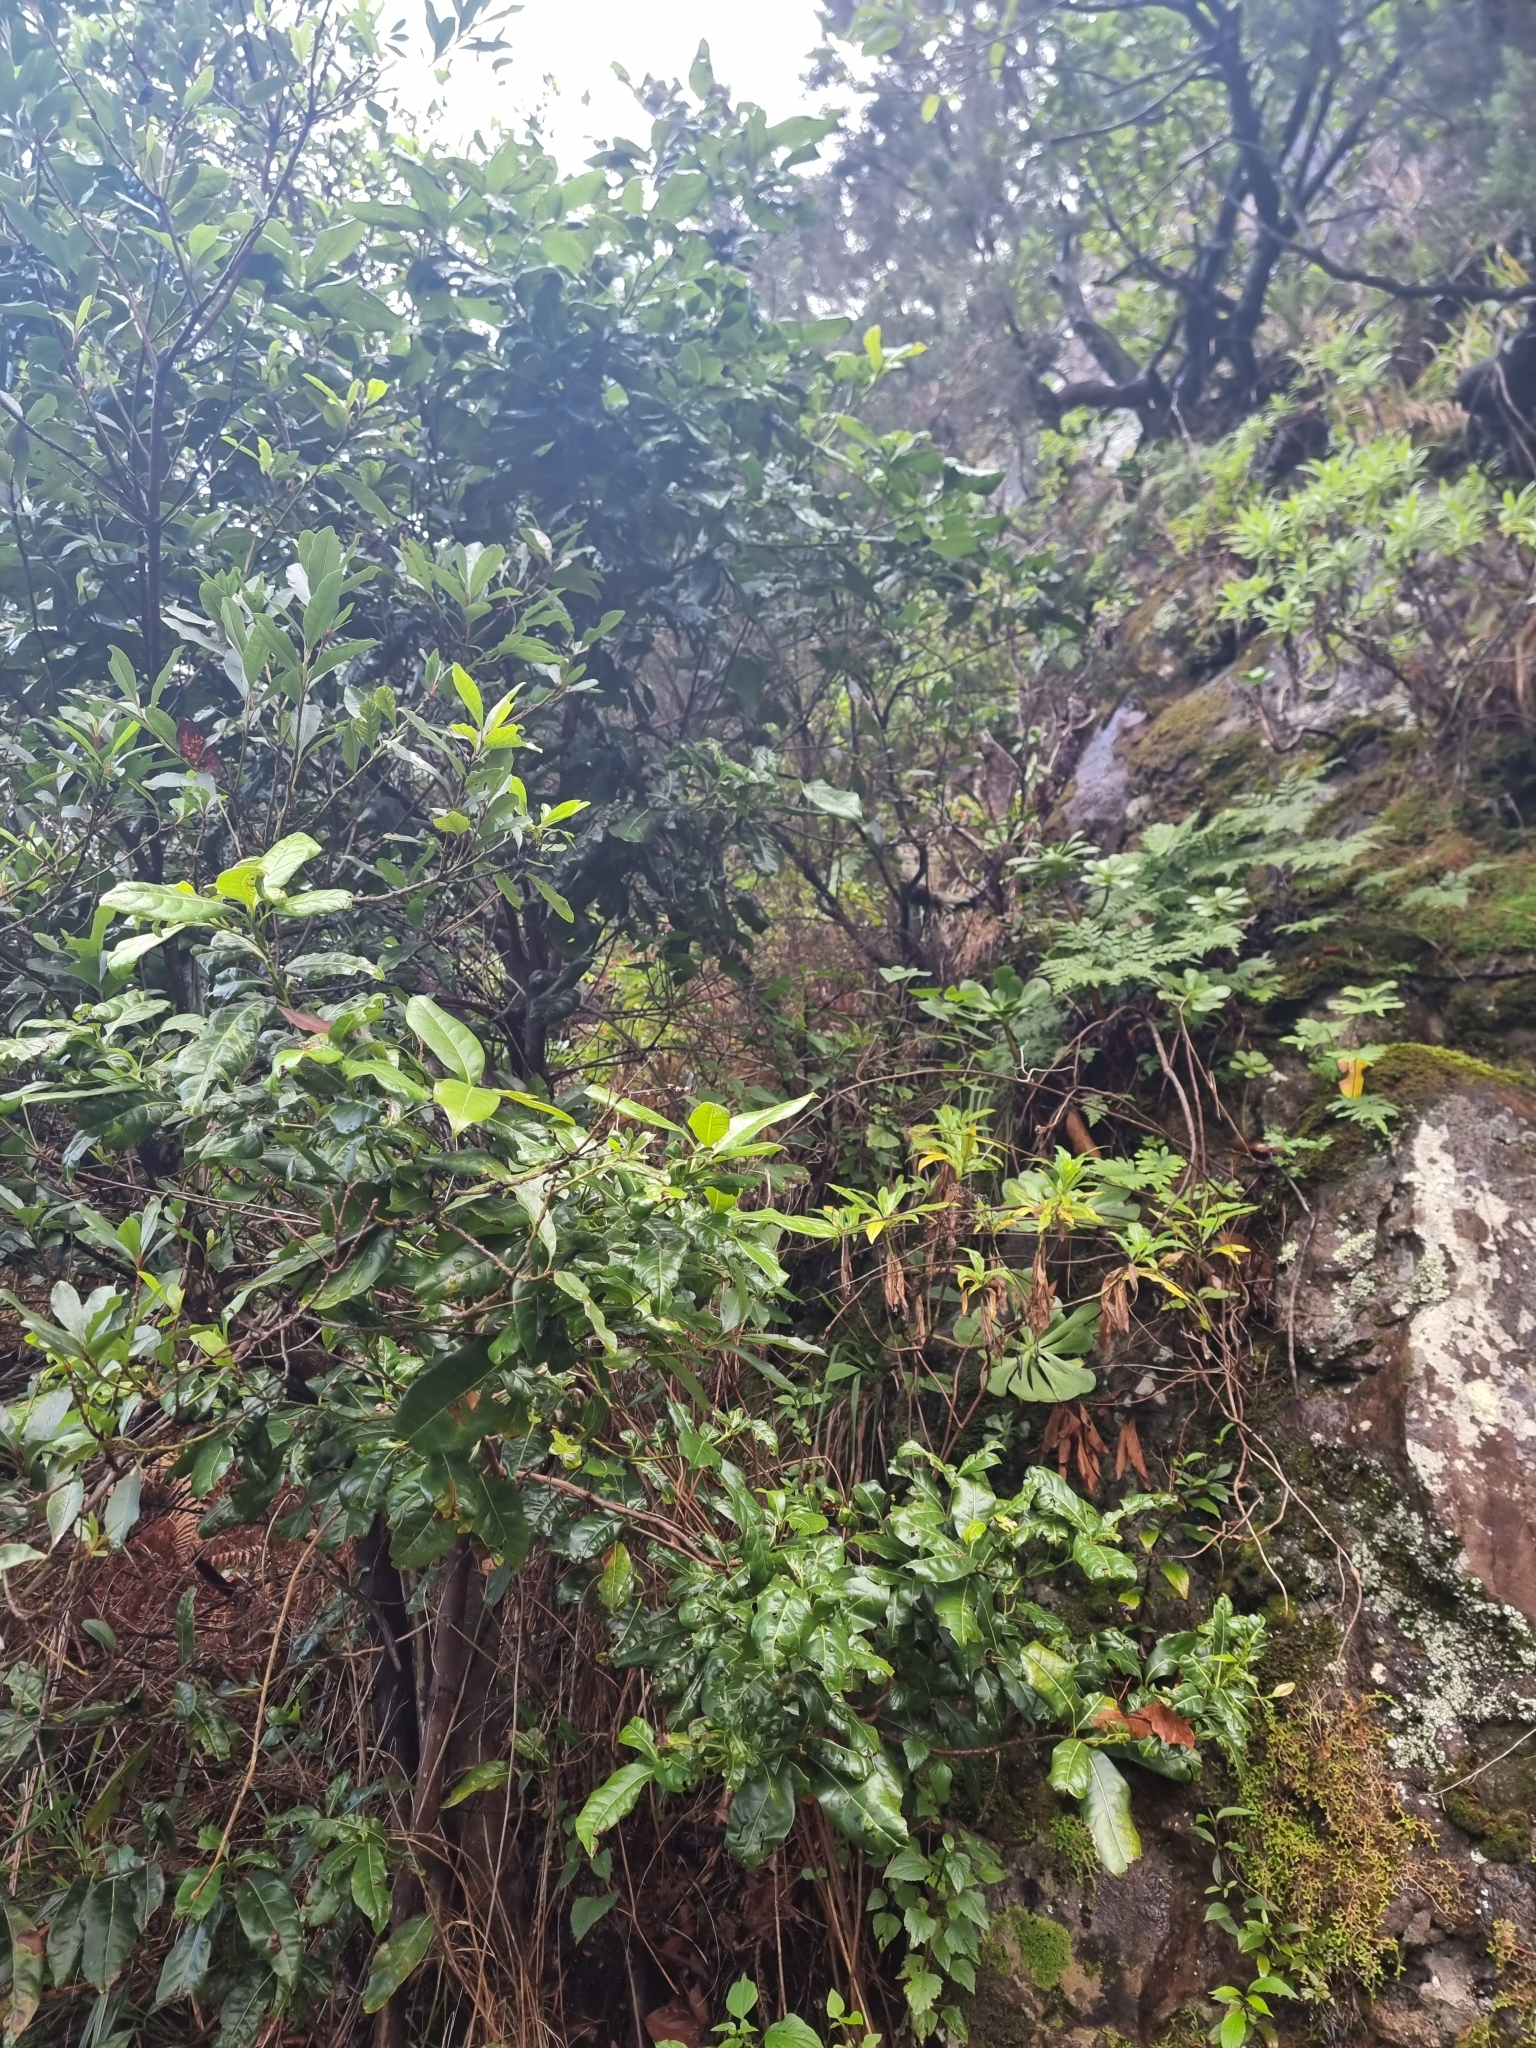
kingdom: Plantae
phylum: Tracheophyta
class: Magnoliopsida
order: Laurales
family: Lauraceae
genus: Apollonias
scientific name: Apollonias barbujana
